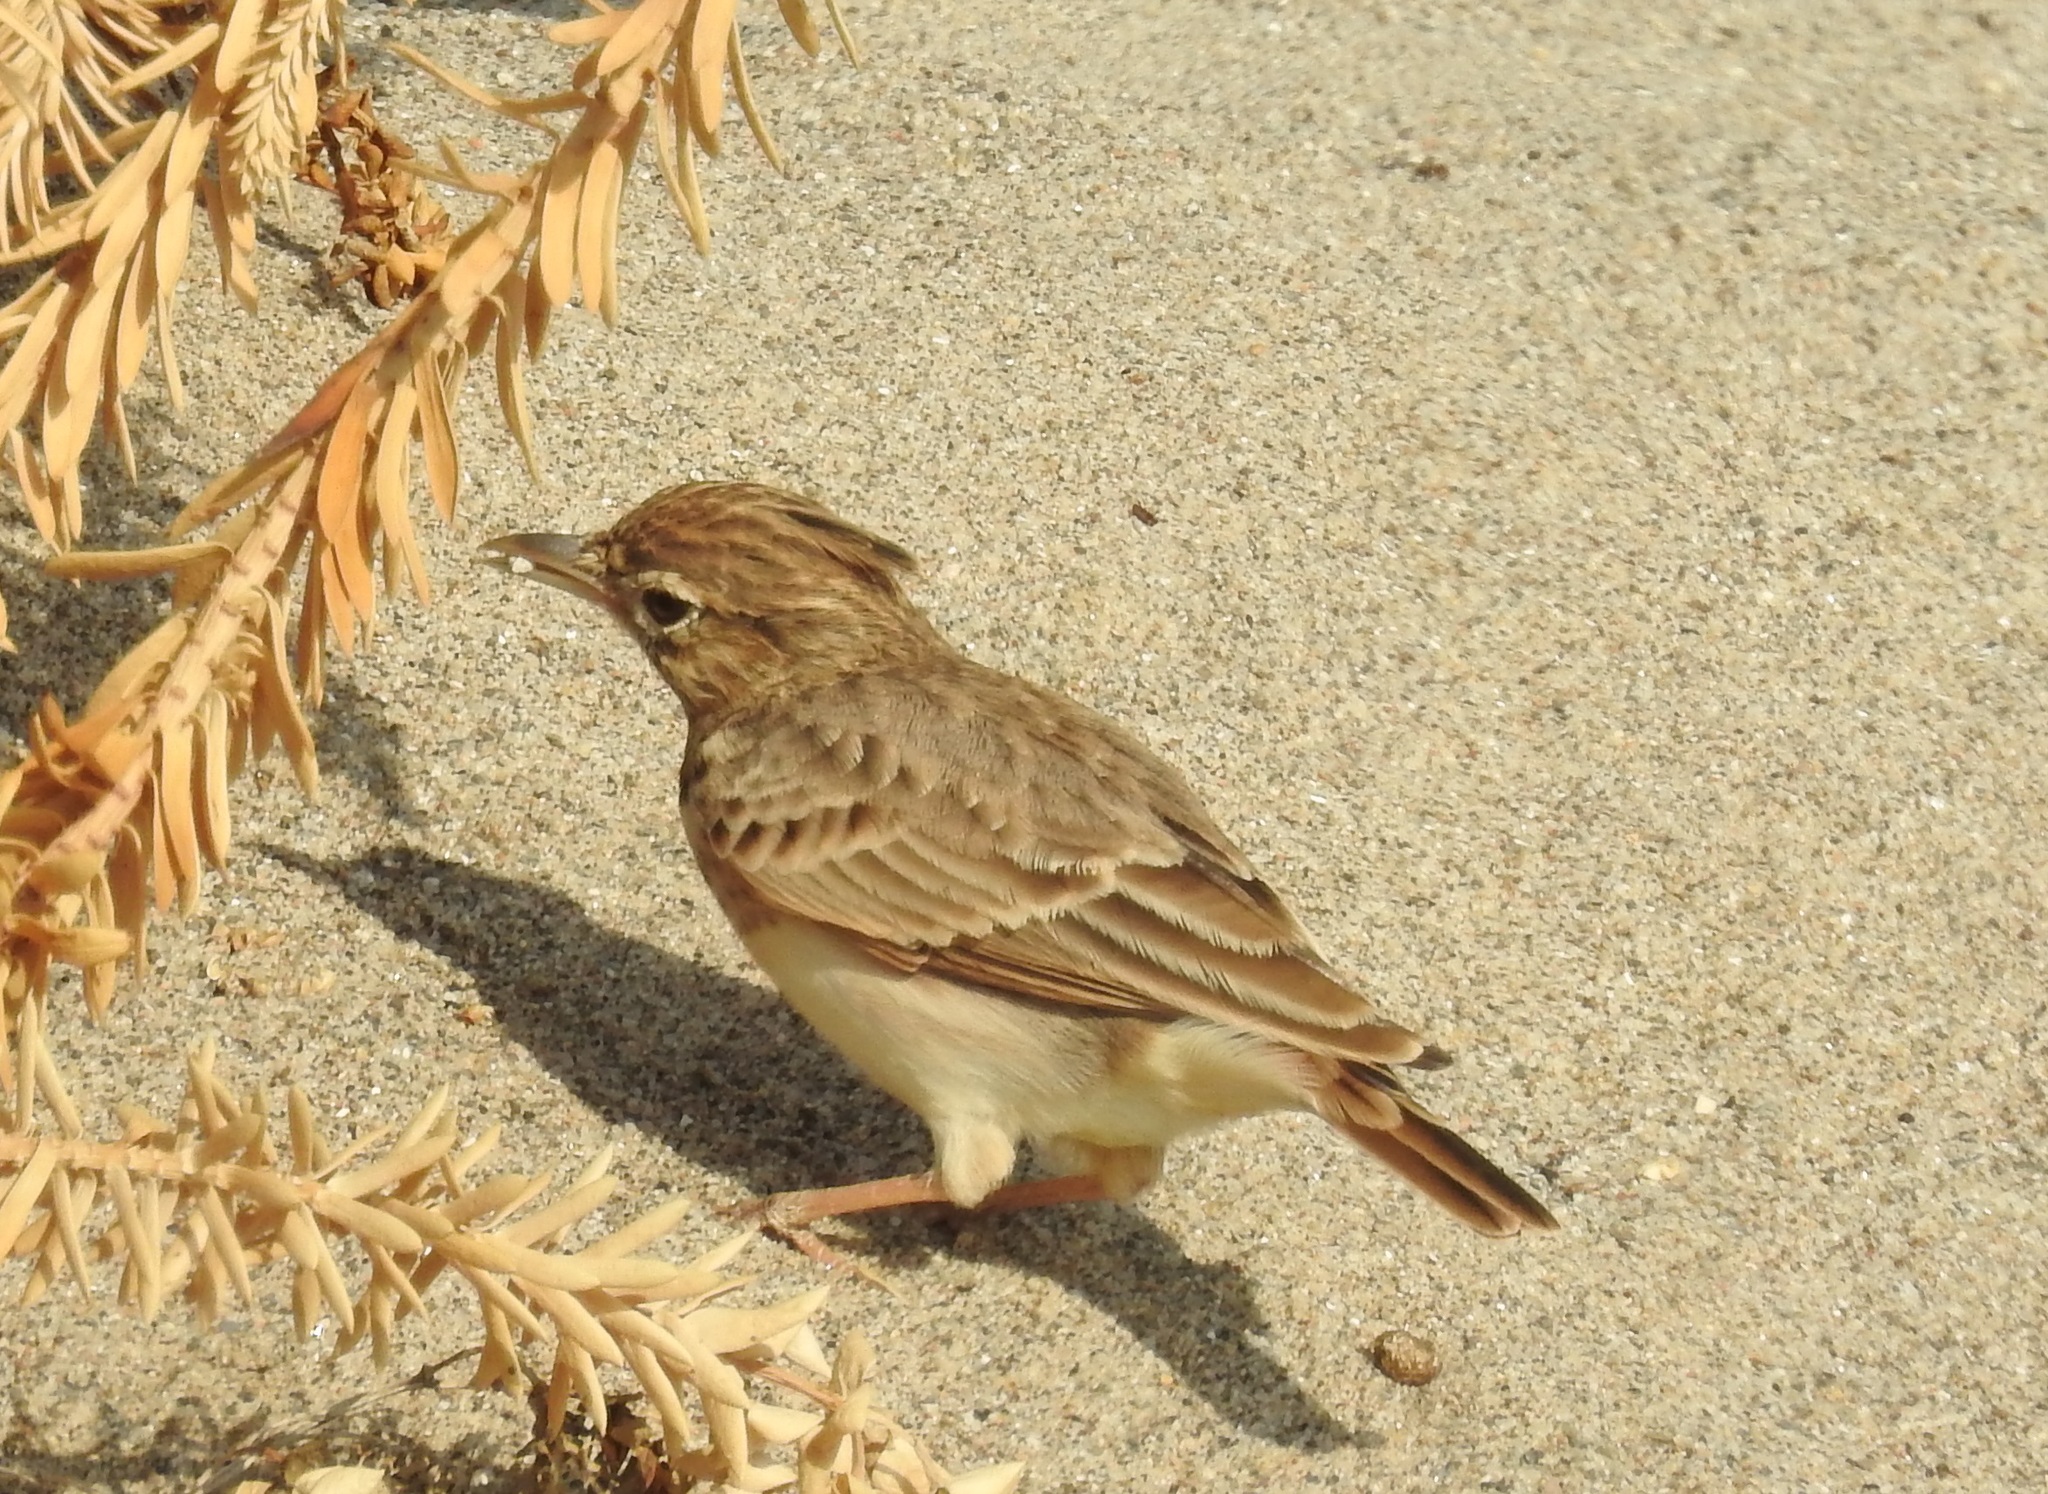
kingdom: Animalia
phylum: Chordata
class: Aves
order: Passeriformes
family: Alaudidae
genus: Galerida
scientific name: Galerida cristata
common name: Crested lark
